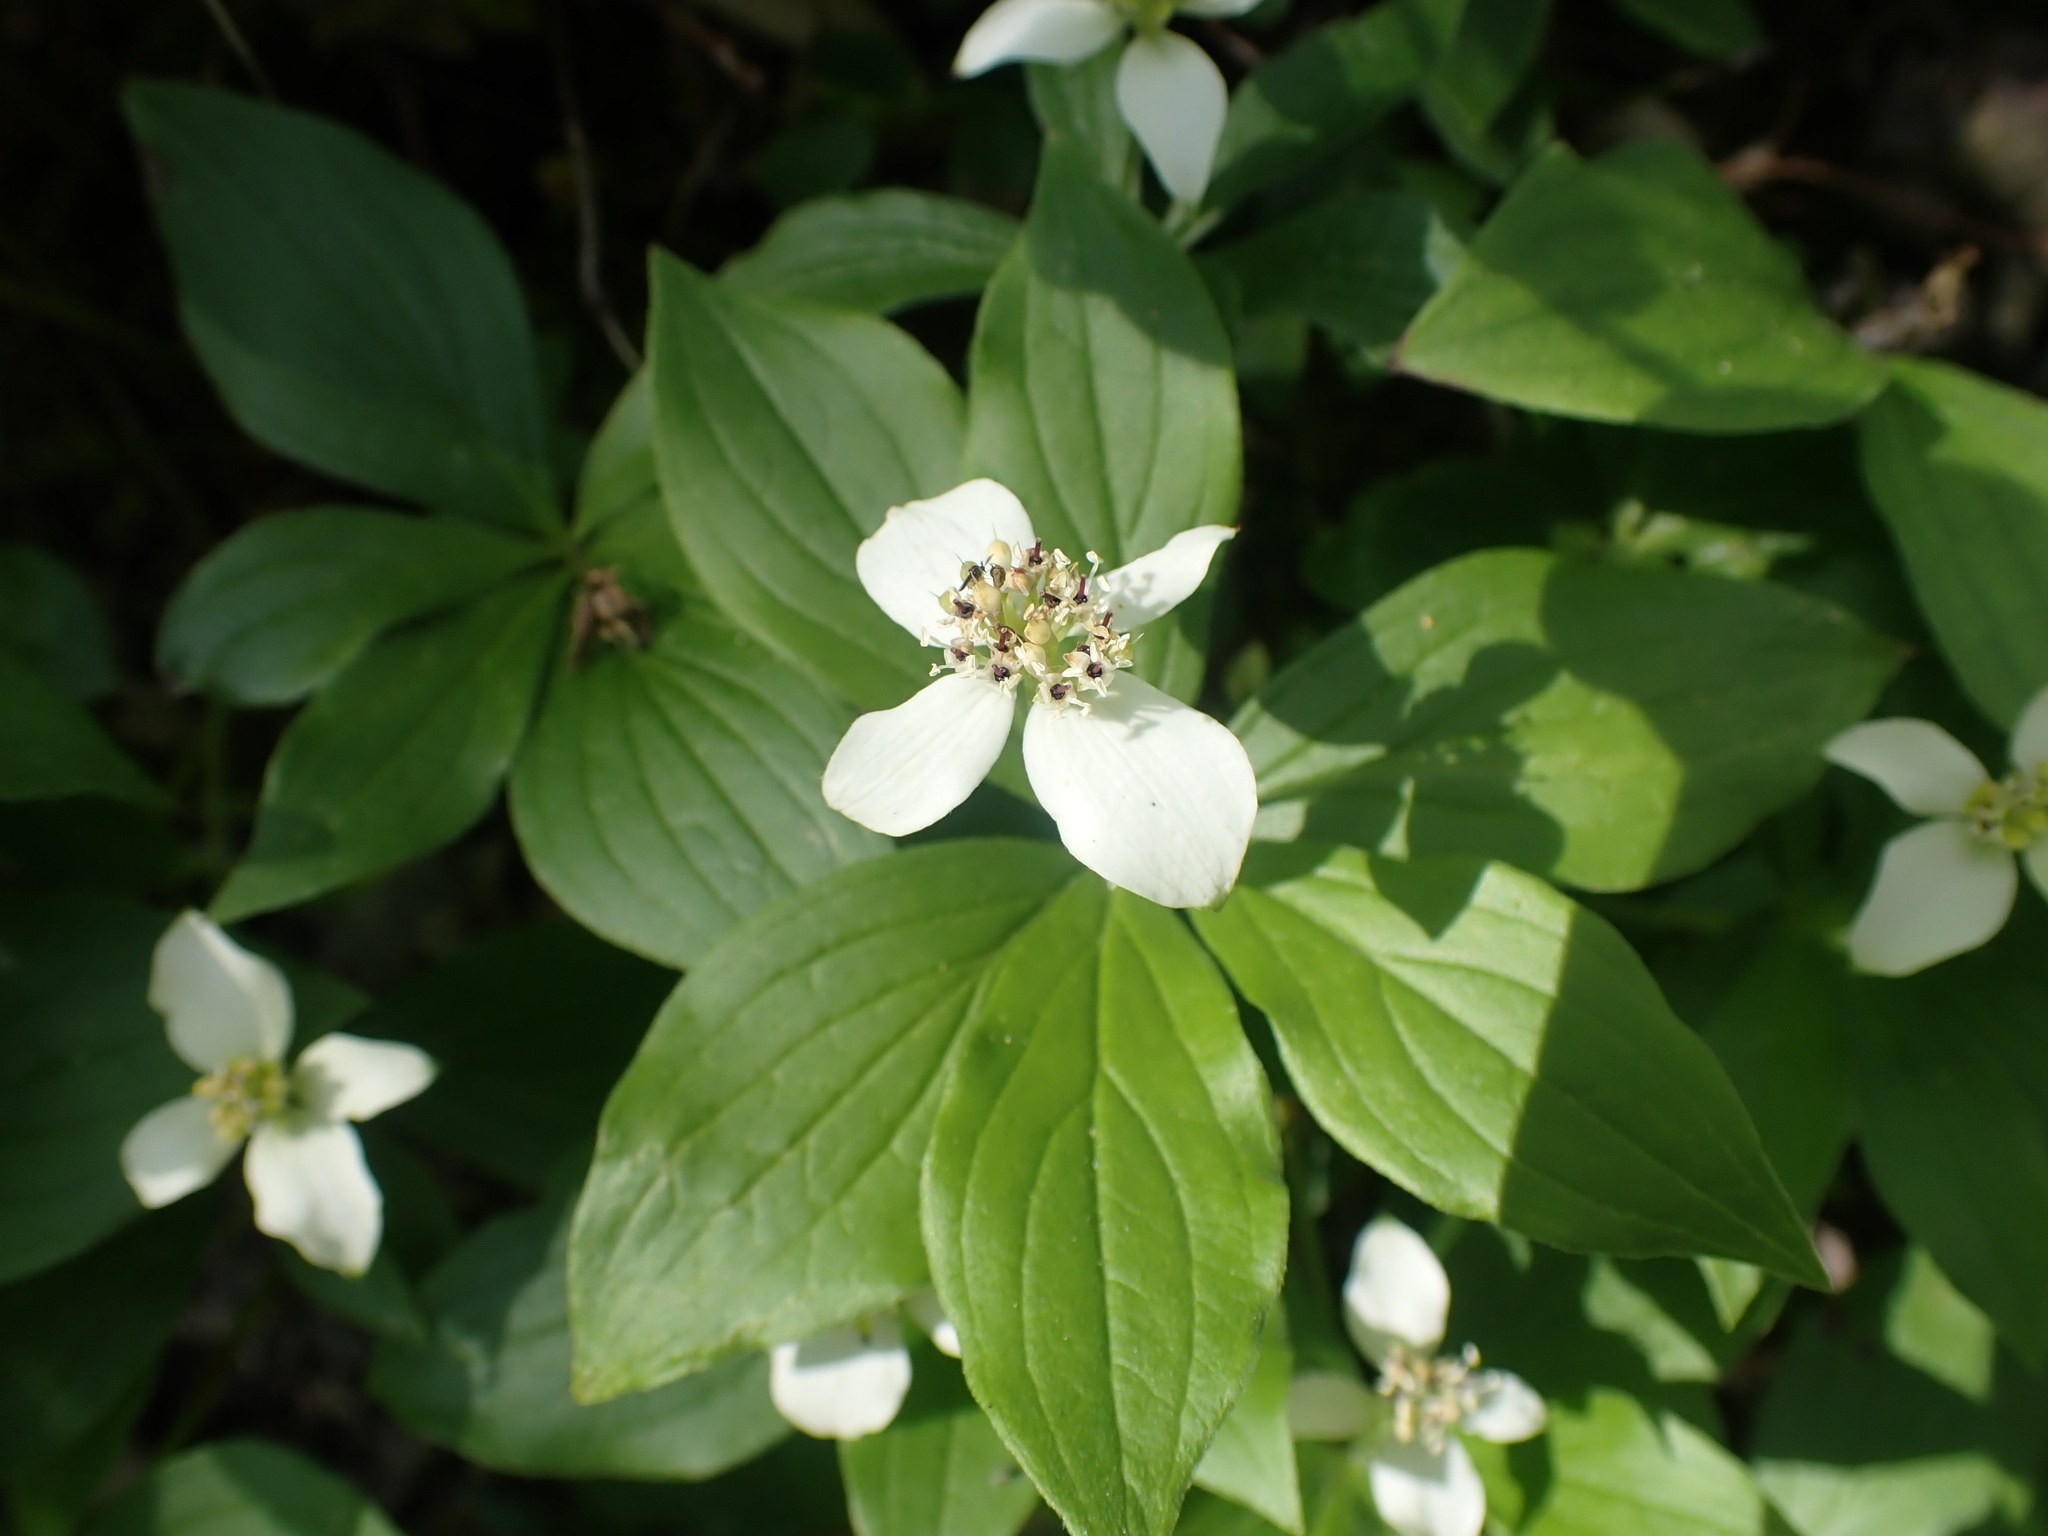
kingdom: Plantae
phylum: Tracheophyta
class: Magnoliopsida
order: Cornales
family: Cornaceae
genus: Cornus
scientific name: Cornus canadensis
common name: Creeping dogwood
